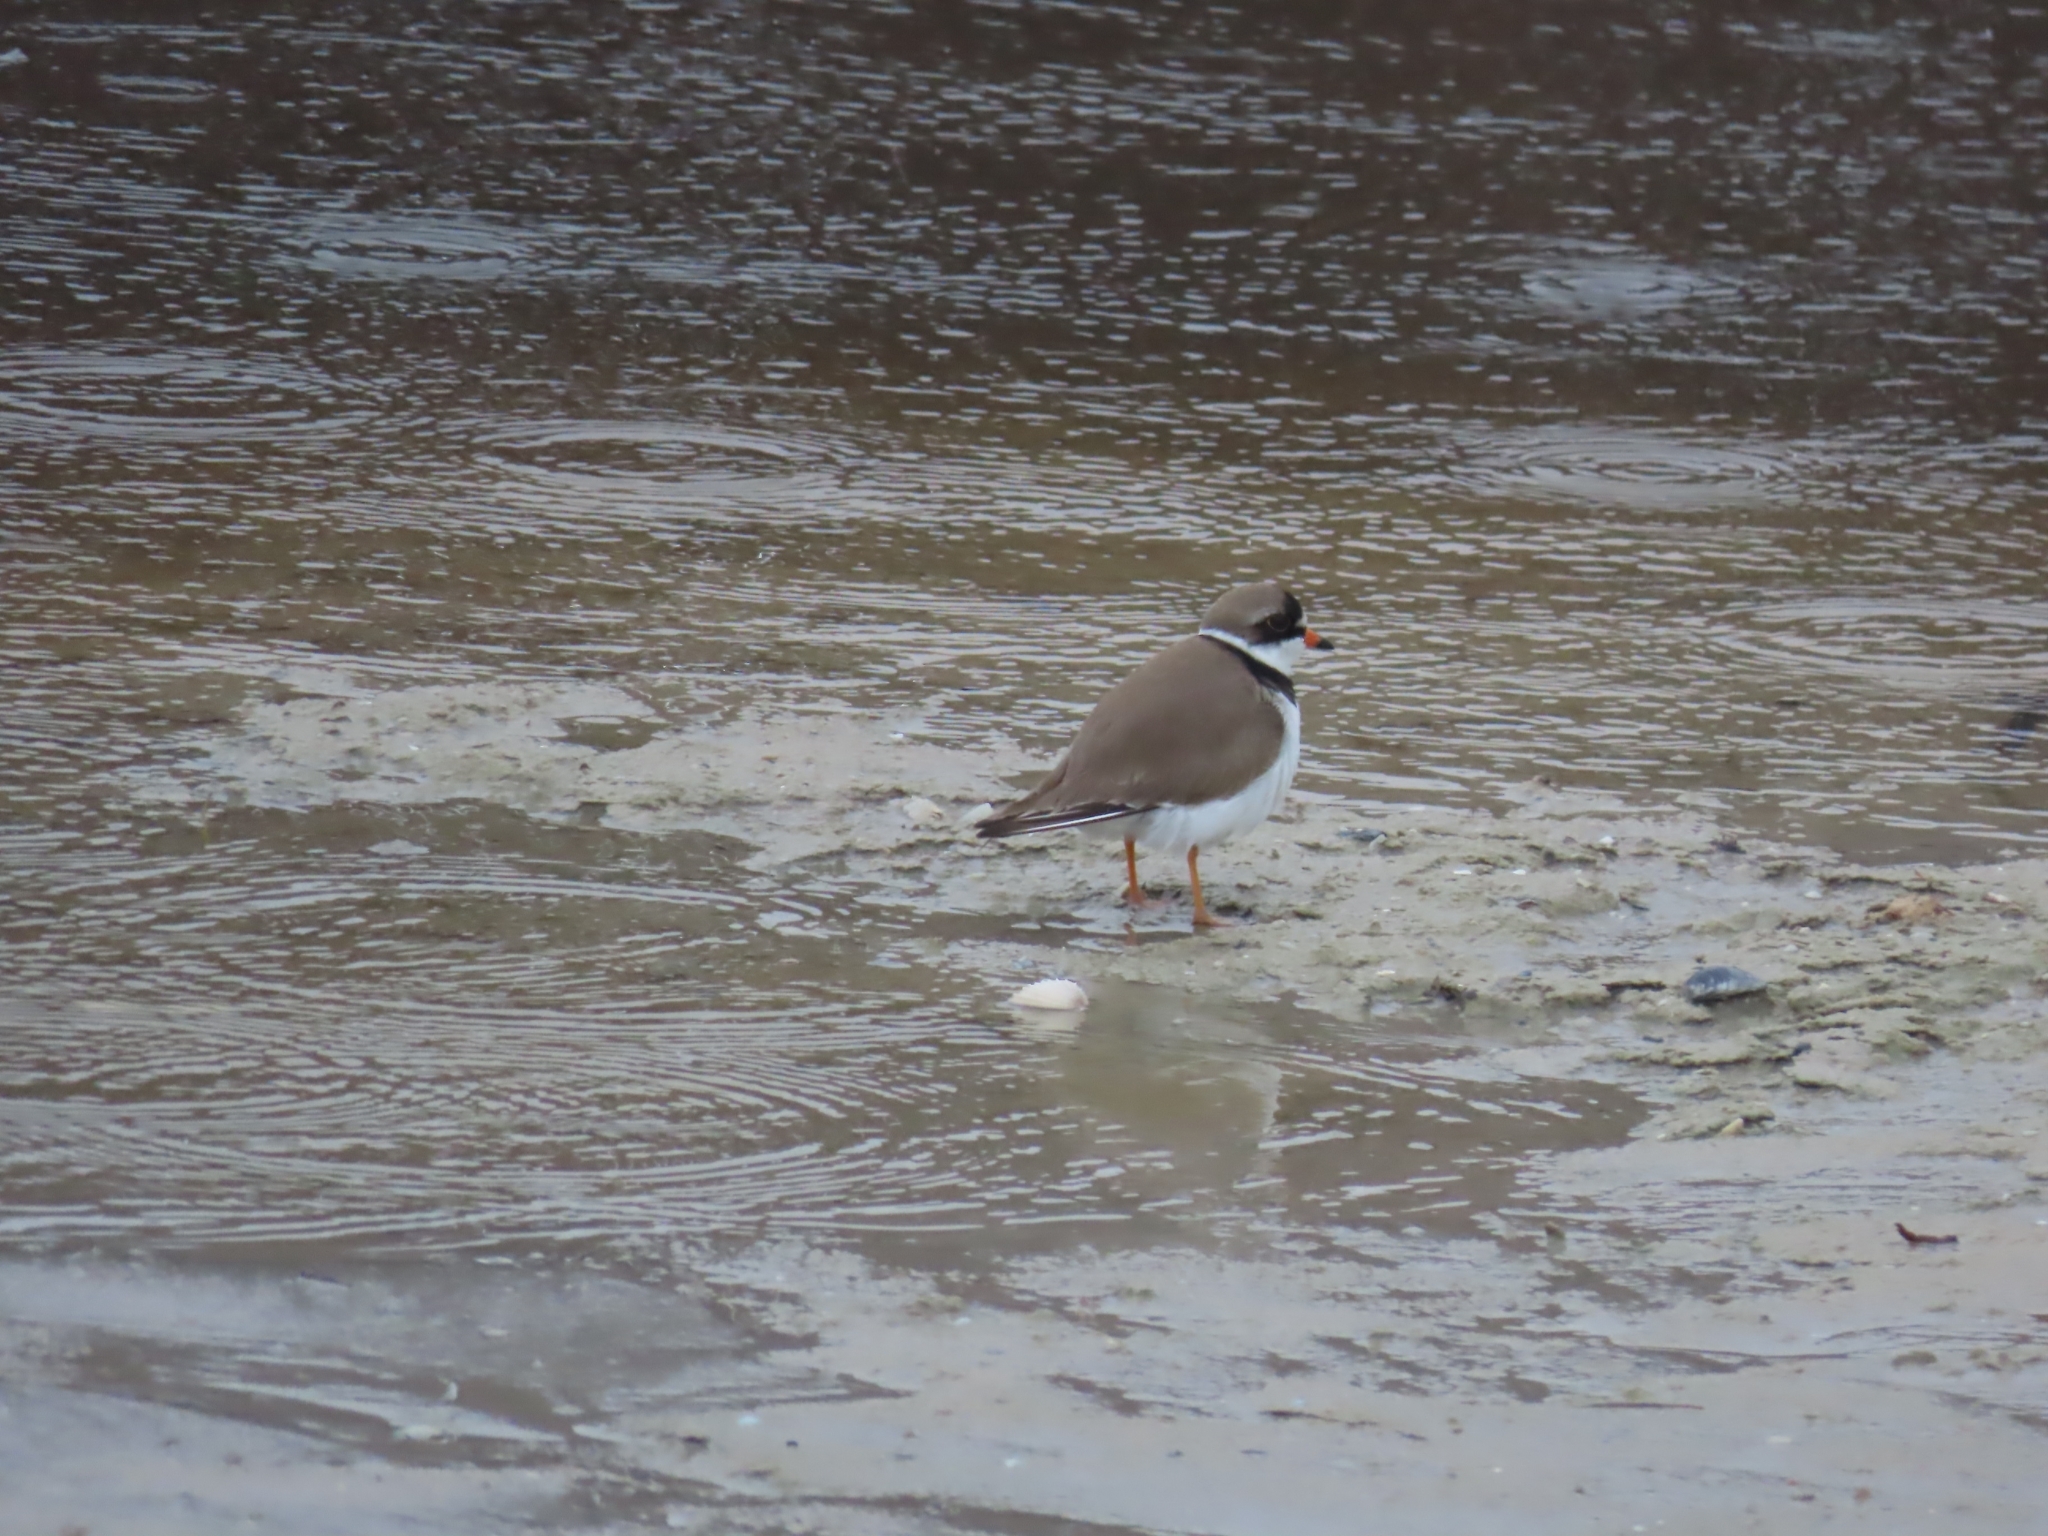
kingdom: Animalia
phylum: Chordata
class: Aves
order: Charadriiformes
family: Charadriidae
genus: Charadrius
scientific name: Charadrius semipalmatus
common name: Semipalmated plover
